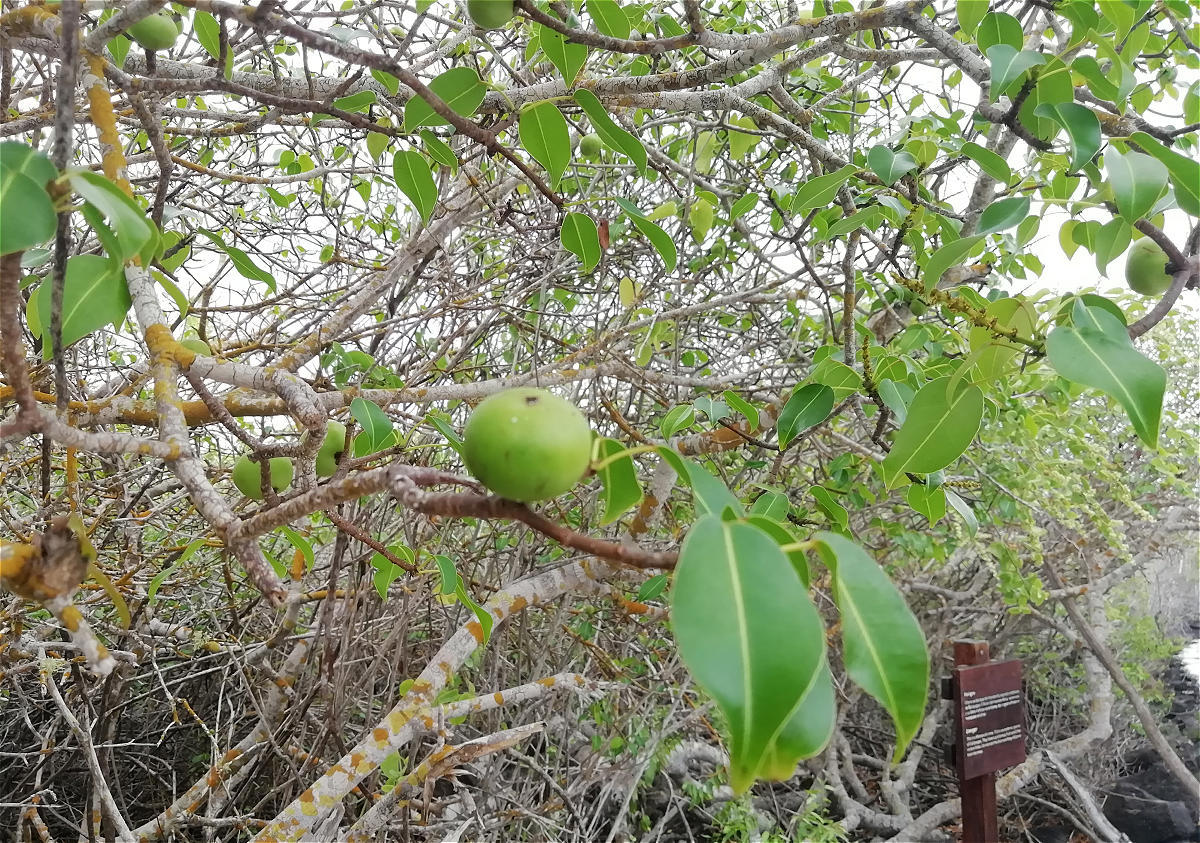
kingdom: Plantae
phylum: Tracheophyta
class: Magnoliopsida
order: Malpighiales
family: Euphorbiaceae
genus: Hippomane
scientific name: Hippomane mancinella
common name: Manchineel
